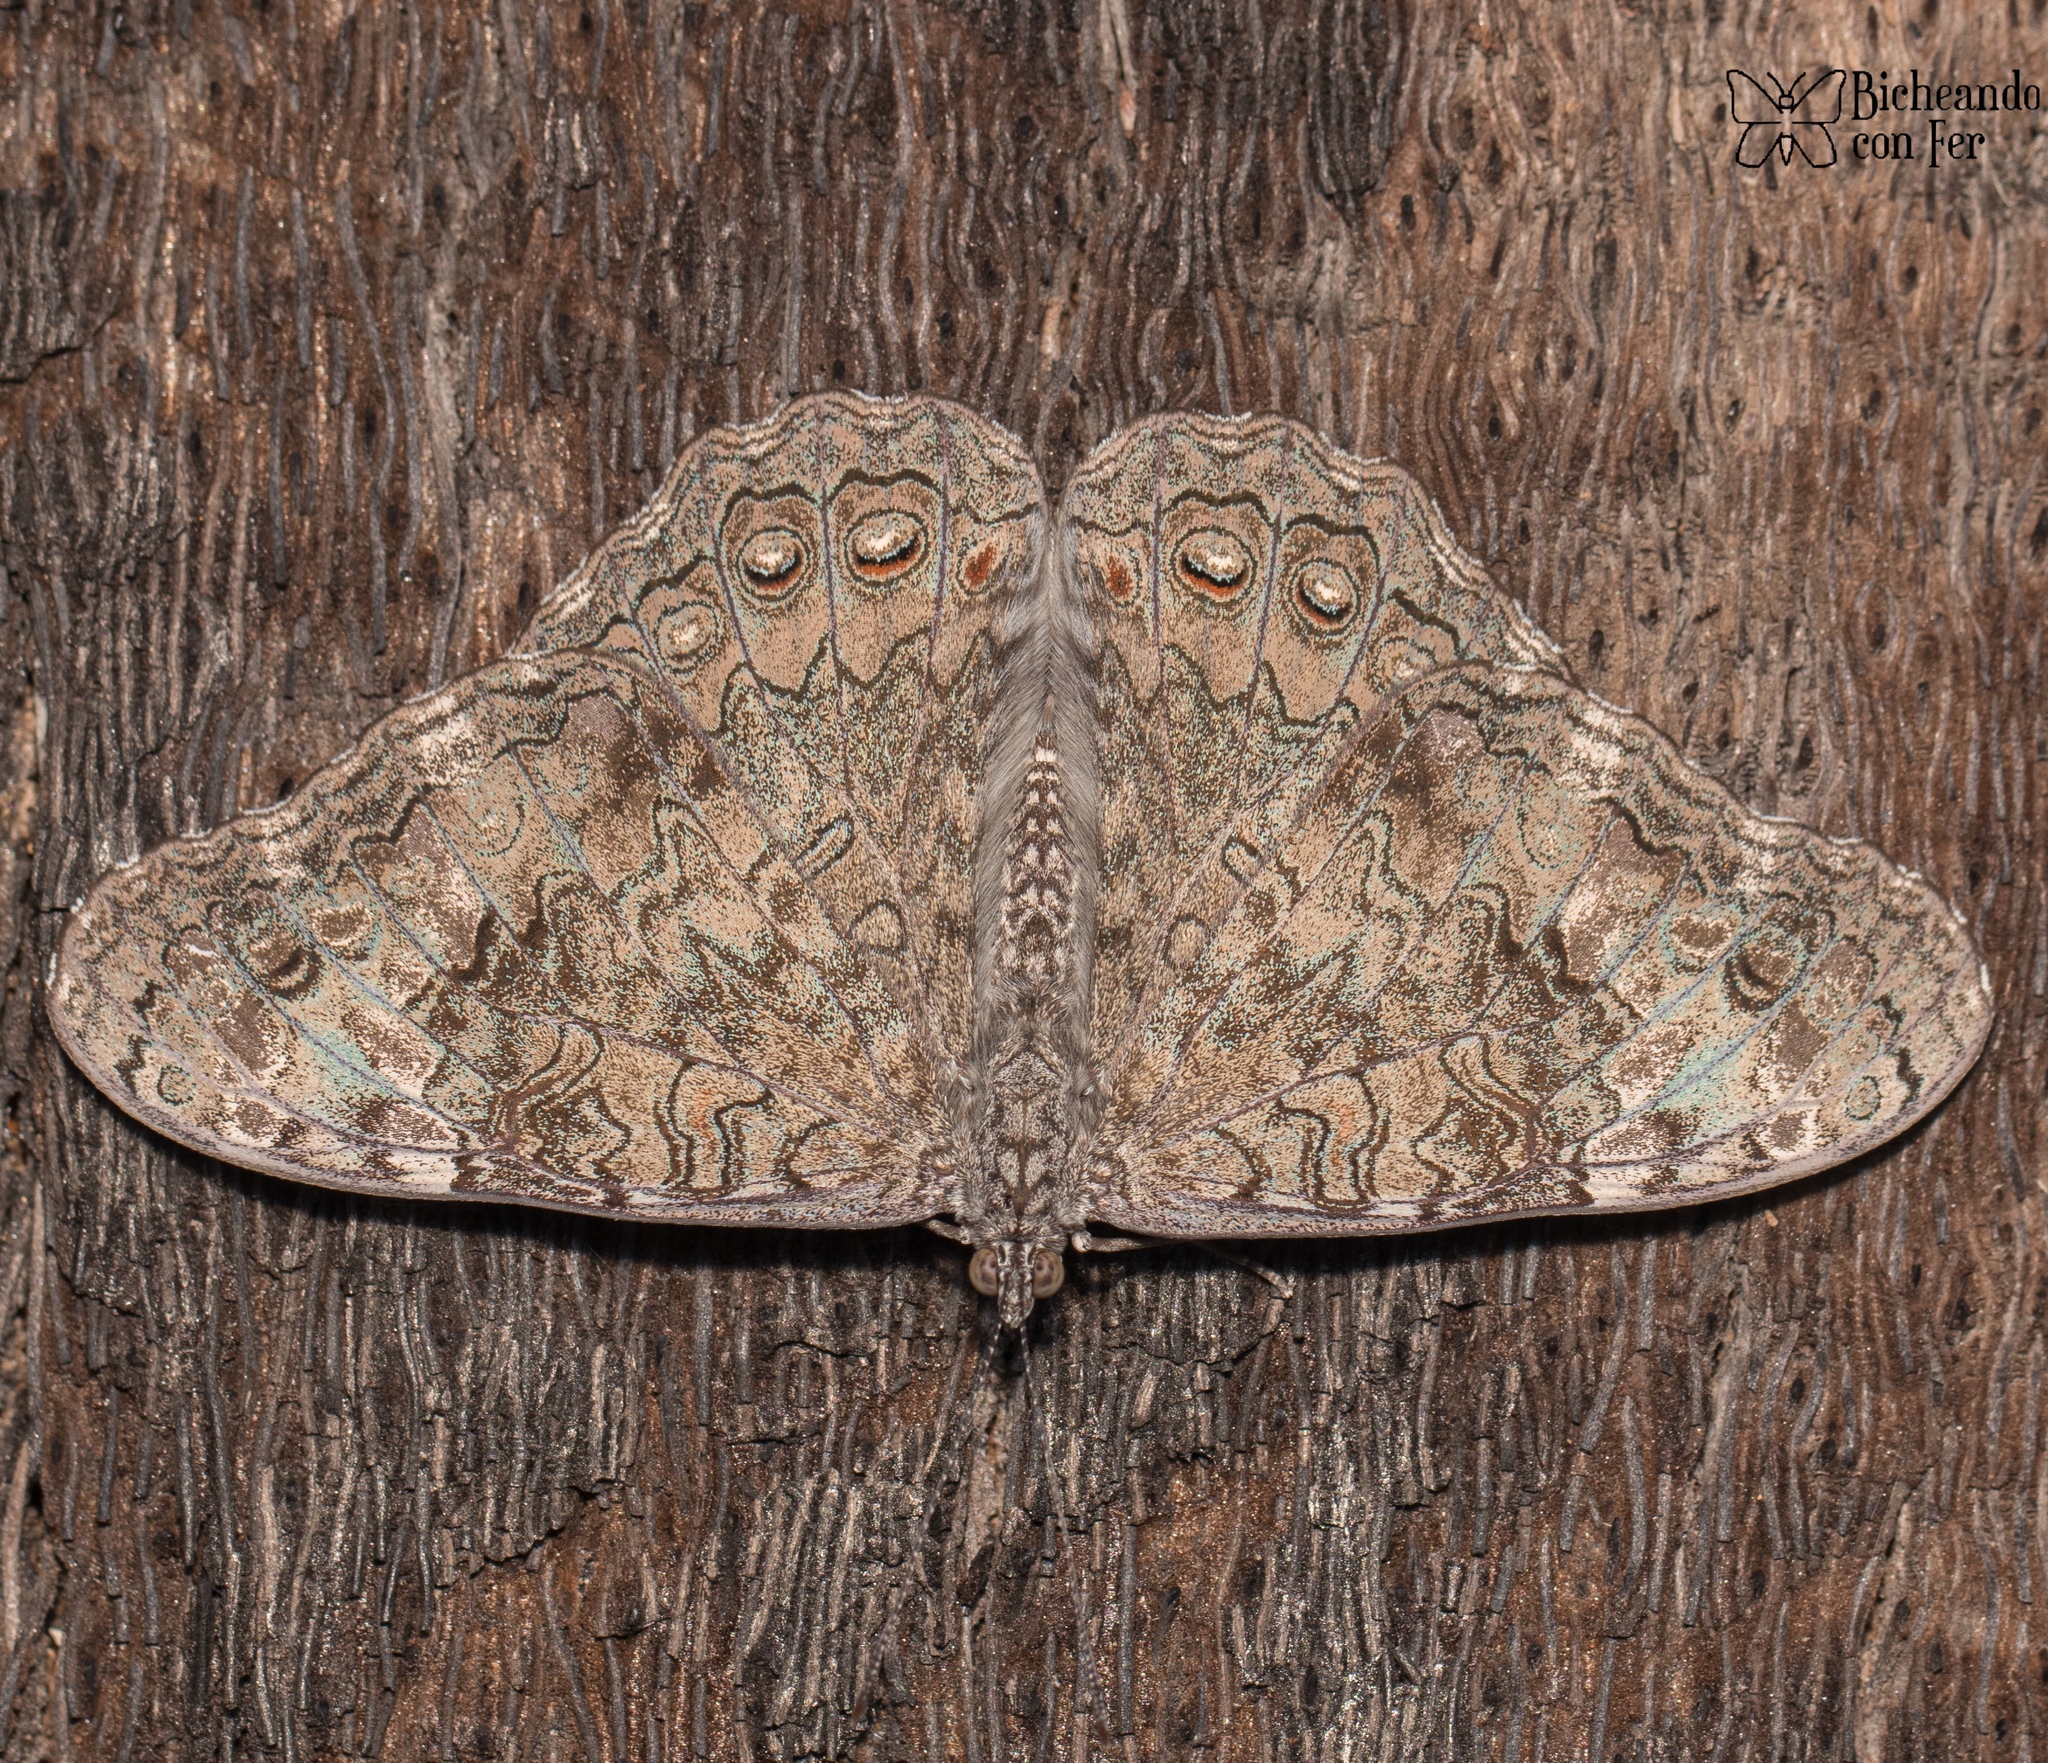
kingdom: Animalia
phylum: Arthropoda
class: Insecta
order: Lepidoptera
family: Nymphalidae
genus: Hamadryas
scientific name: Hamadryas glauconome
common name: Glaucous cracker
